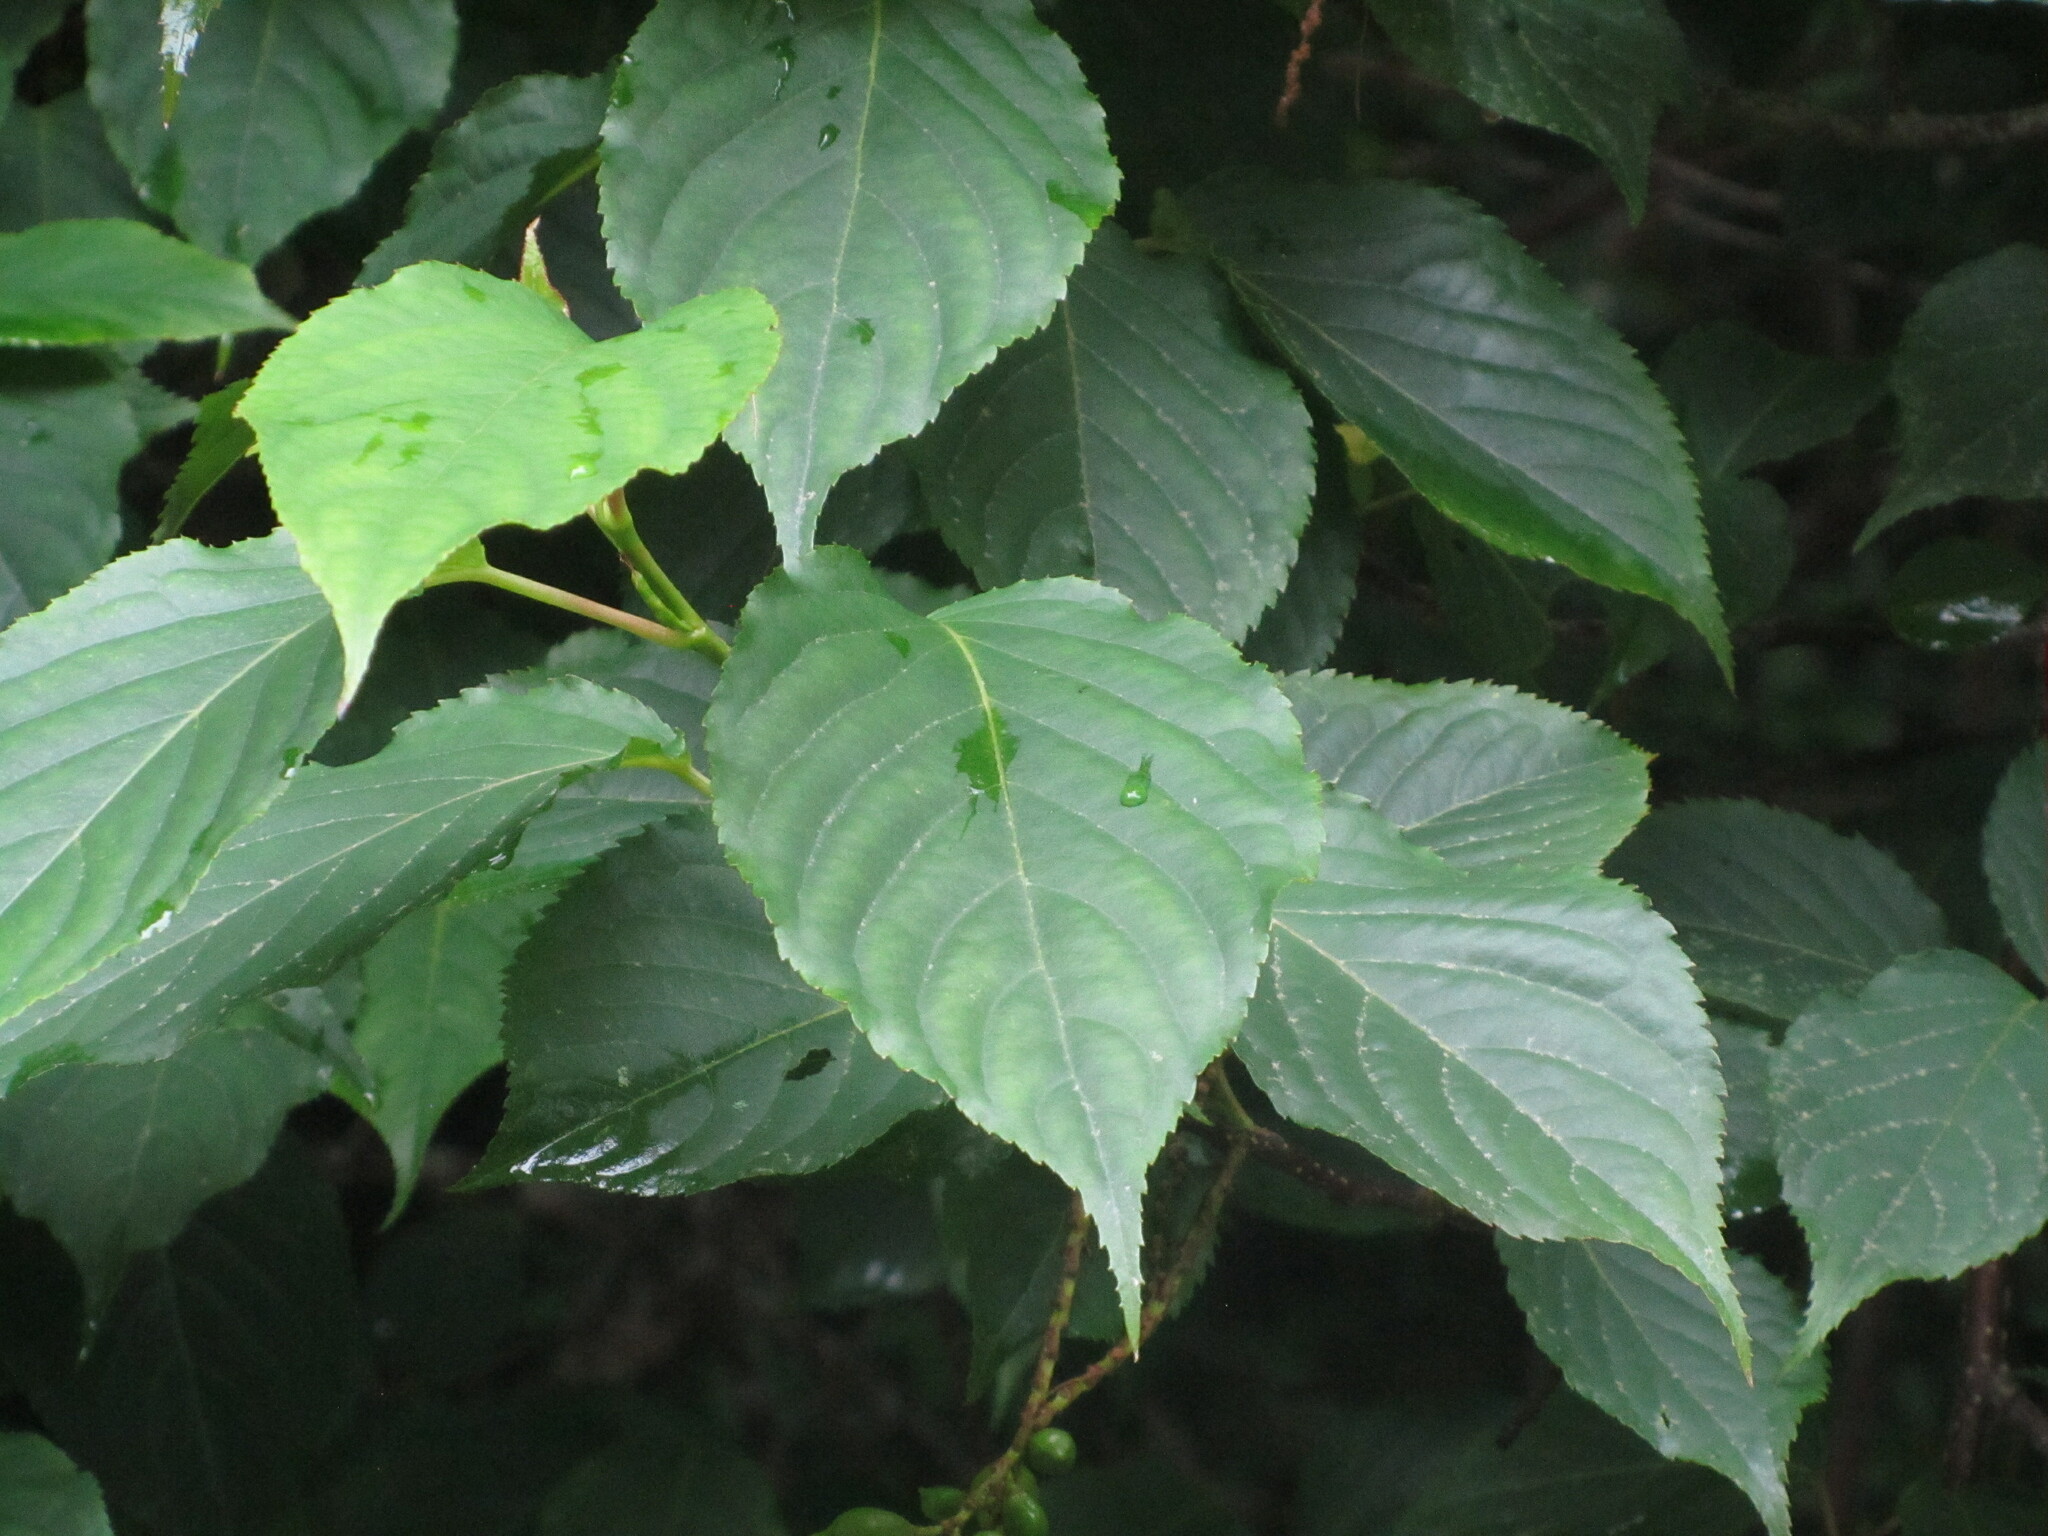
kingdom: Plantae
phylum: Tracheophyta
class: Magnoliopsida
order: Crossosomatales
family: Stachyuraceae
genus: Stachyurus
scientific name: Stachyurus praecox
